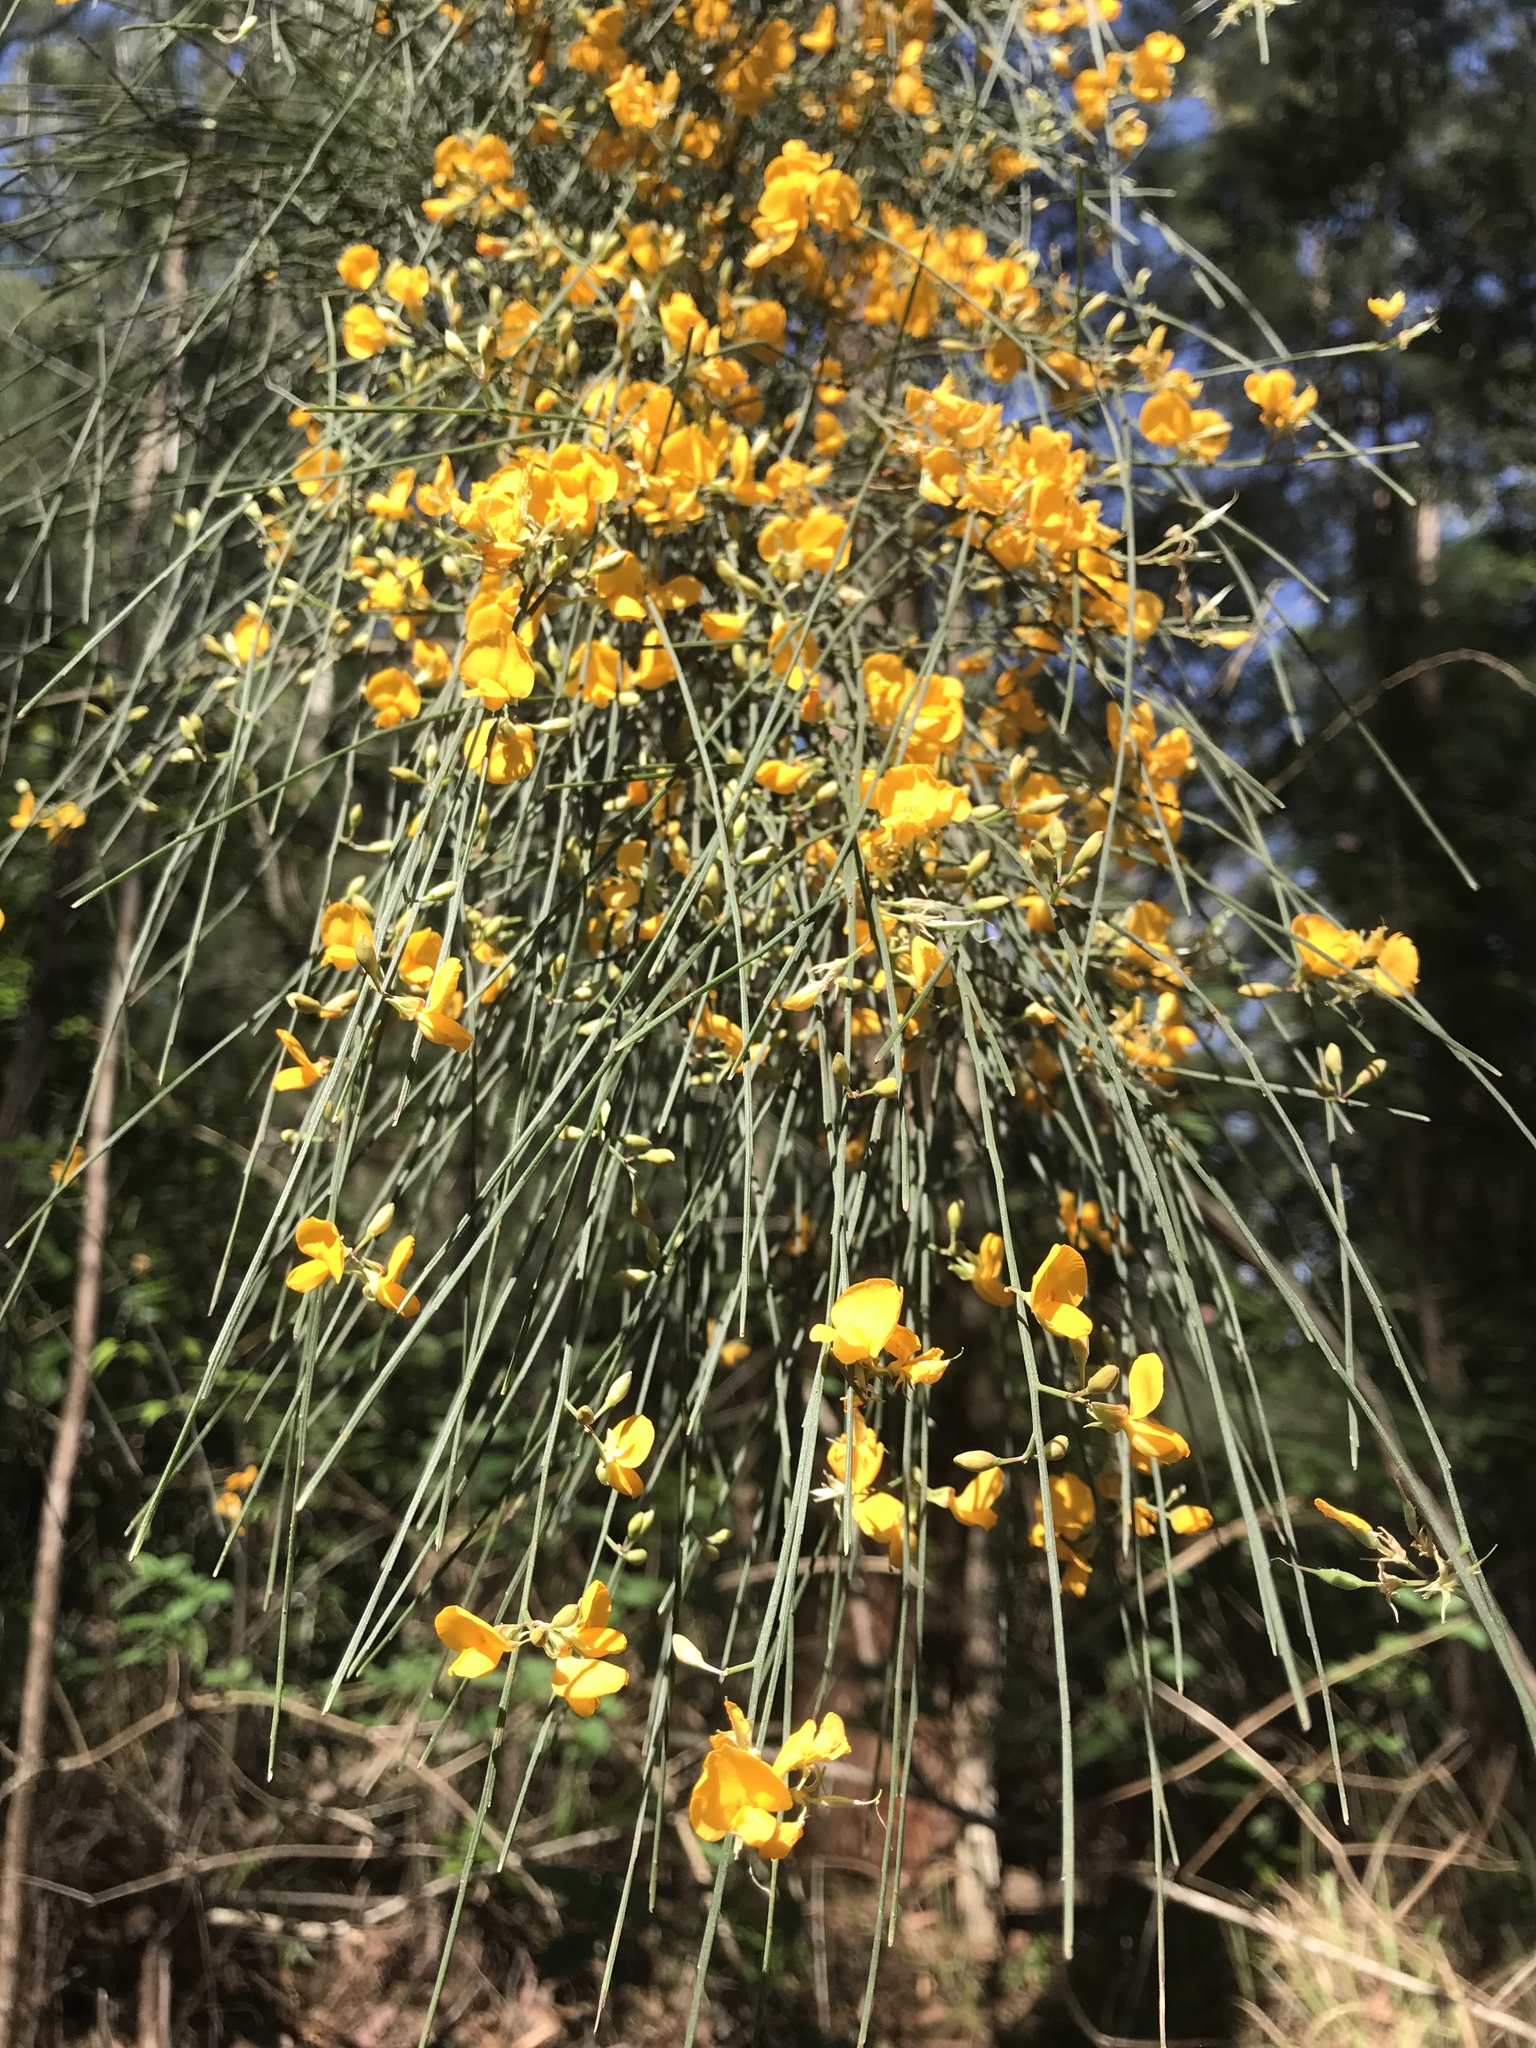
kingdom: Plantae
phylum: Tracheophyta
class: Magnoliopsida
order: Fabales
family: Fabaceae
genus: Jacksonia
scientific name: Jacksonia scoparia
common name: Dogwood
